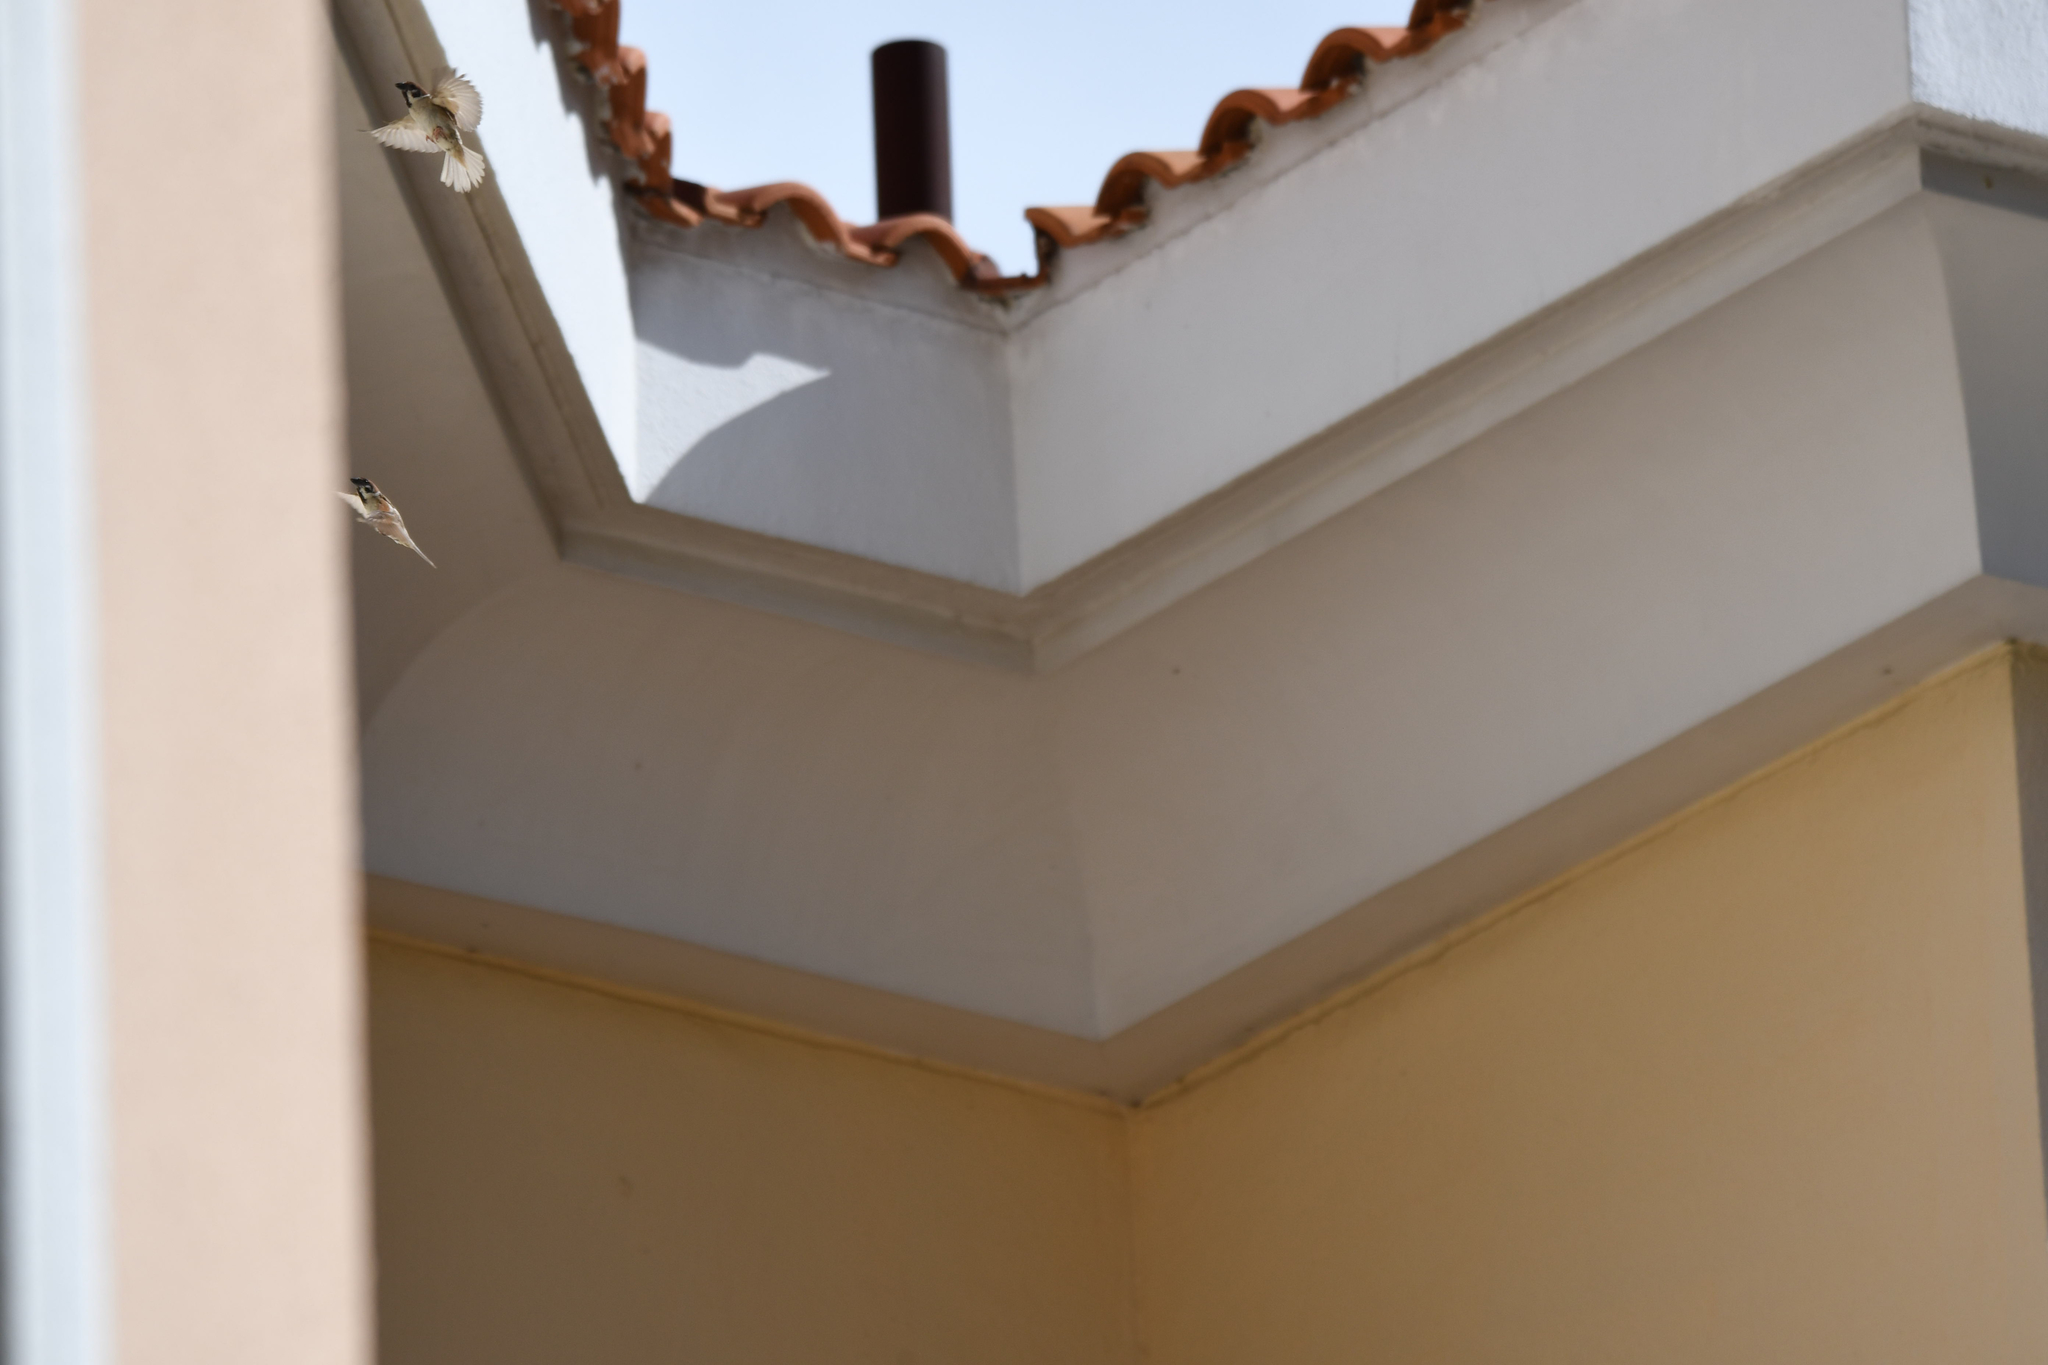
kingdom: Animalia
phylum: Chordata
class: Aves
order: Passeriformes
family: Passeridae
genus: Passer
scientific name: Passer montanus
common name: Eurasian tree sparrow
